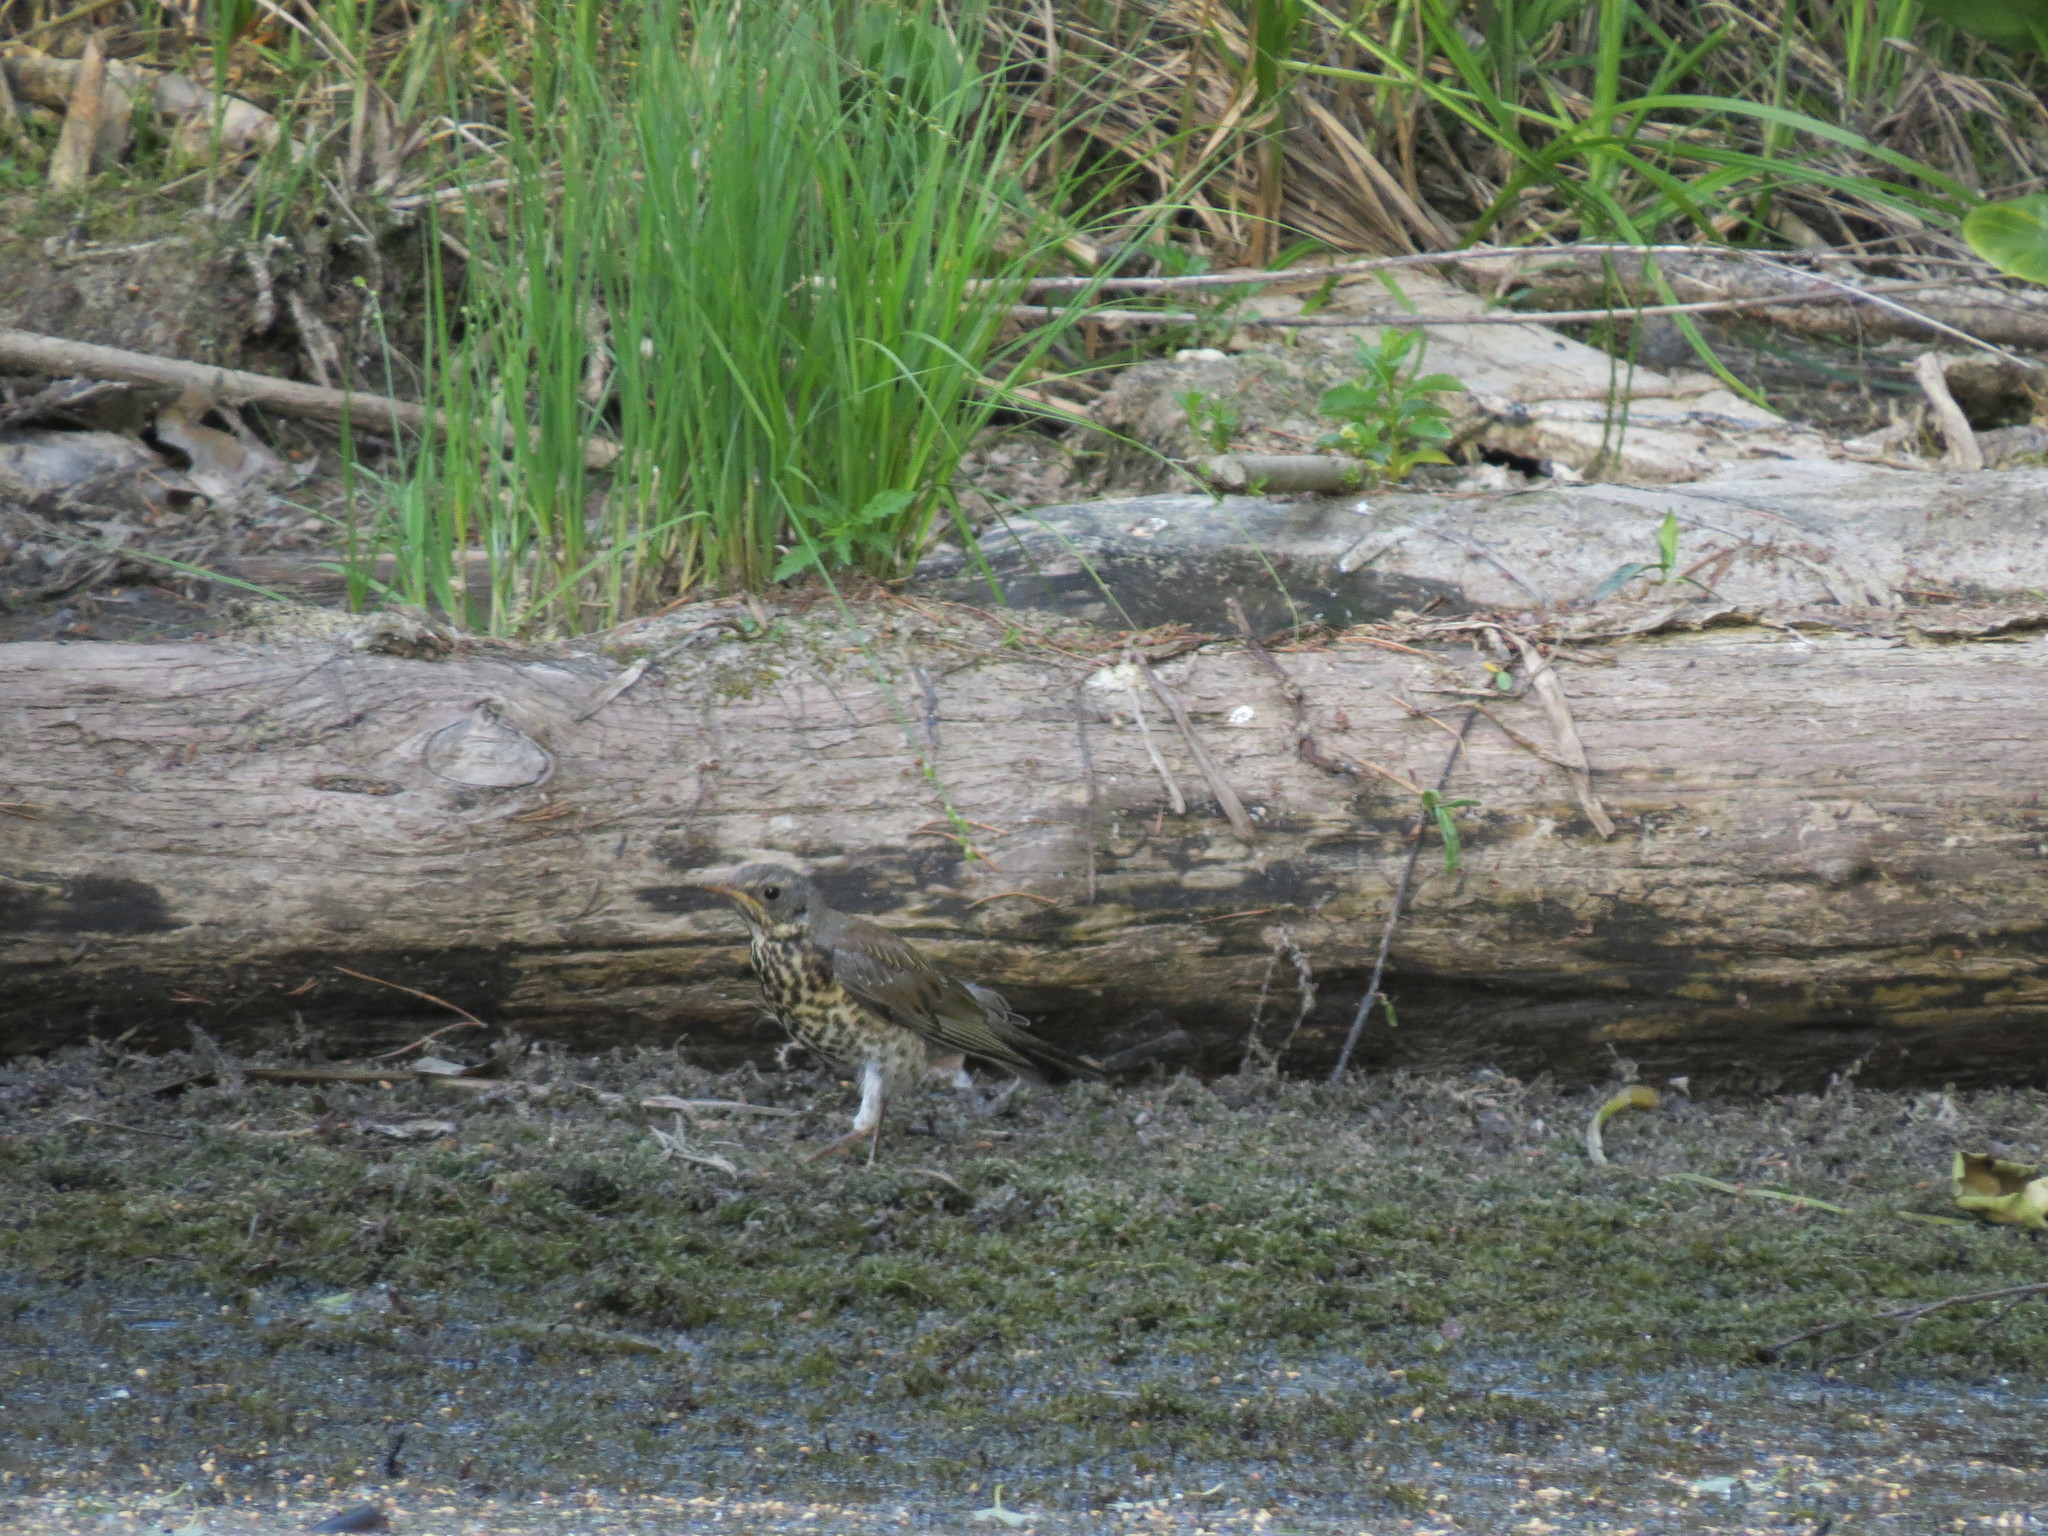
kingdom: Animalia
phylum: Chordata
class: Aves
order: Passeriformes
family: Turdidae
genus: Turdus
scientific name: Turdus pilaris
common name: Fieldfare
